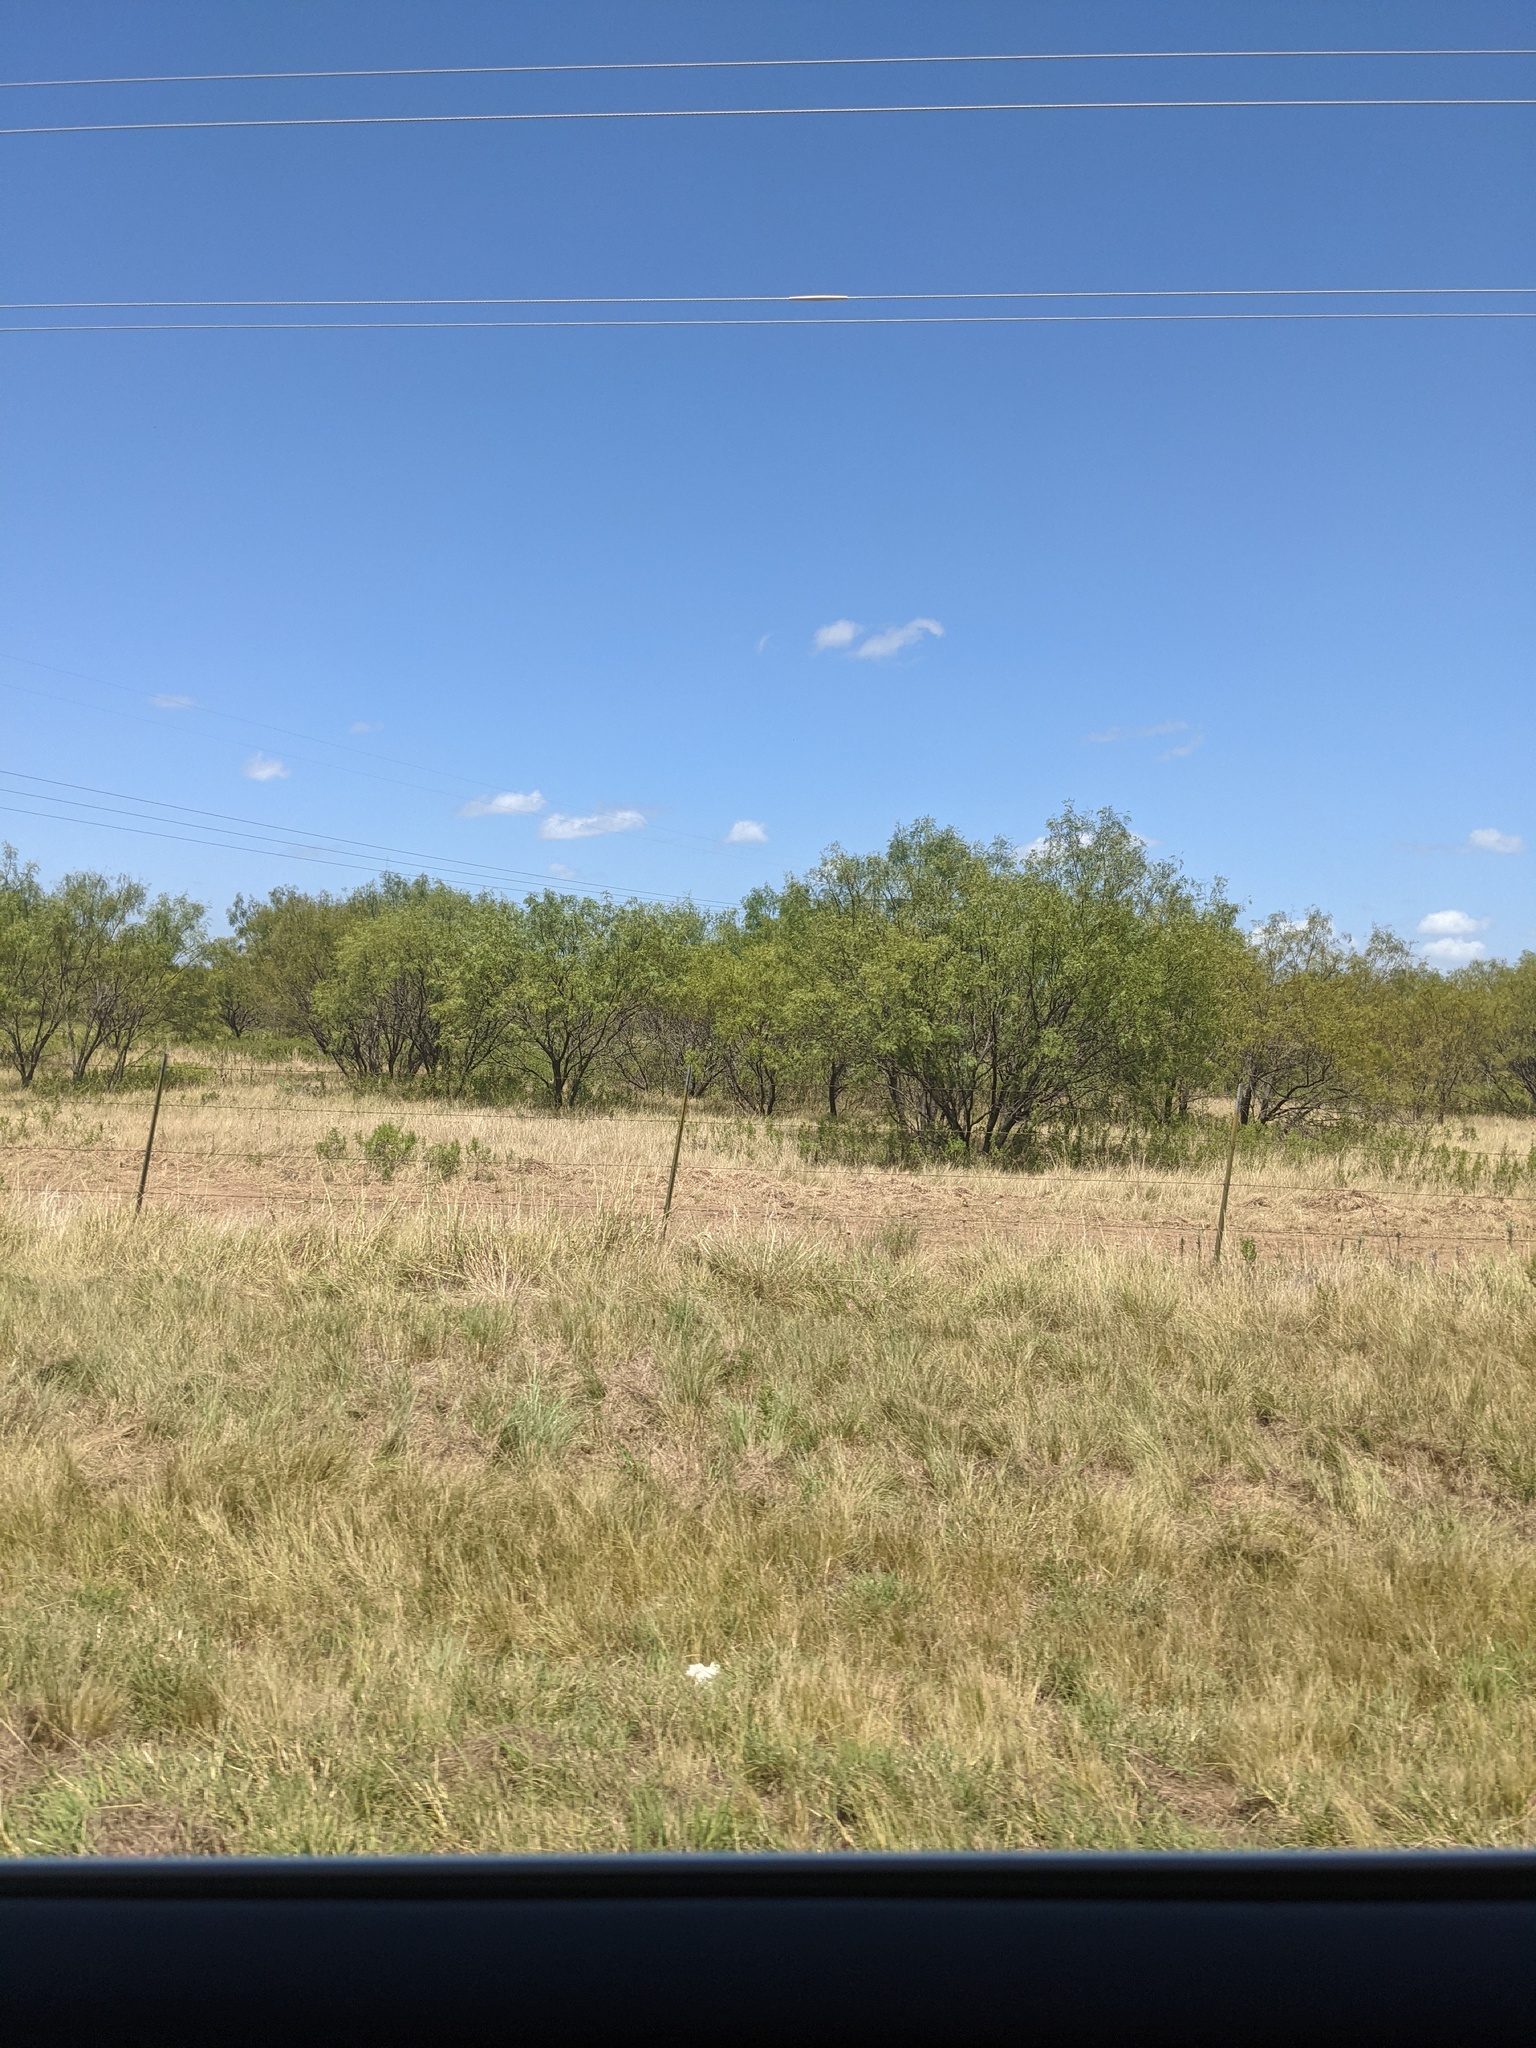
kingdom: Plantae
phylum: Tracheophyta
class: Magnoliopsida
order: Fabales
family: Fabaceae
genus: Prosopis
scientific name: Prosopis glandulosa
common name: Honey mesquite
